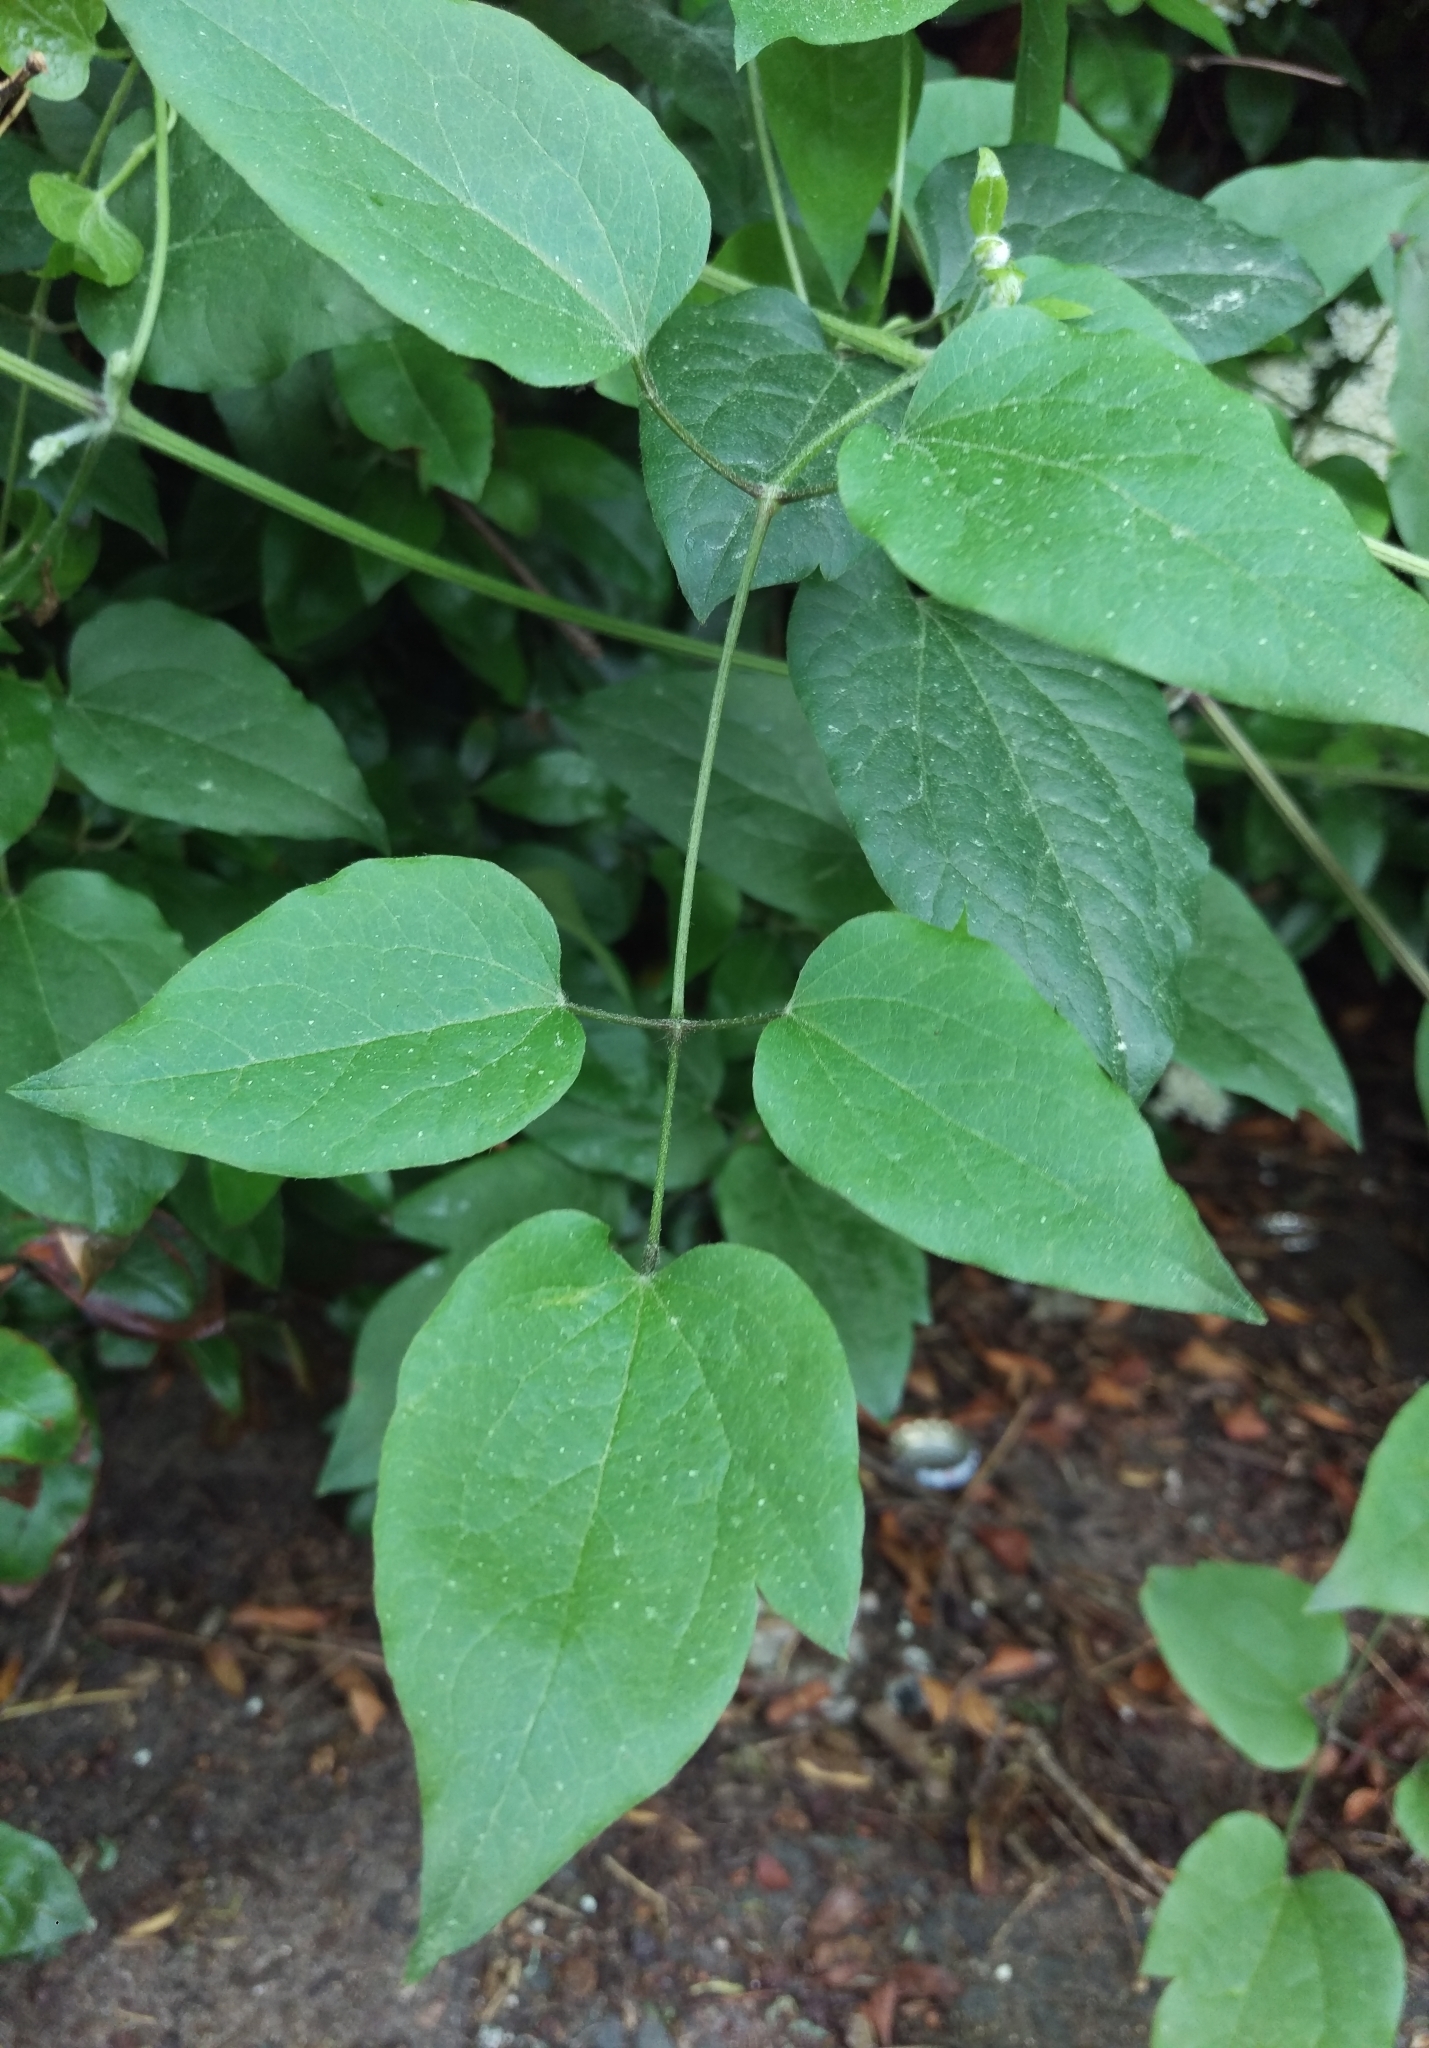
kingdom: Plantae
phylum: Tracheophyta
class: Magnoliopsida
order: Ranunculales
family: Ranunculaceae
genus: Clematis
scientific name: Clematis vitalba
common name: Evergreen clematis
